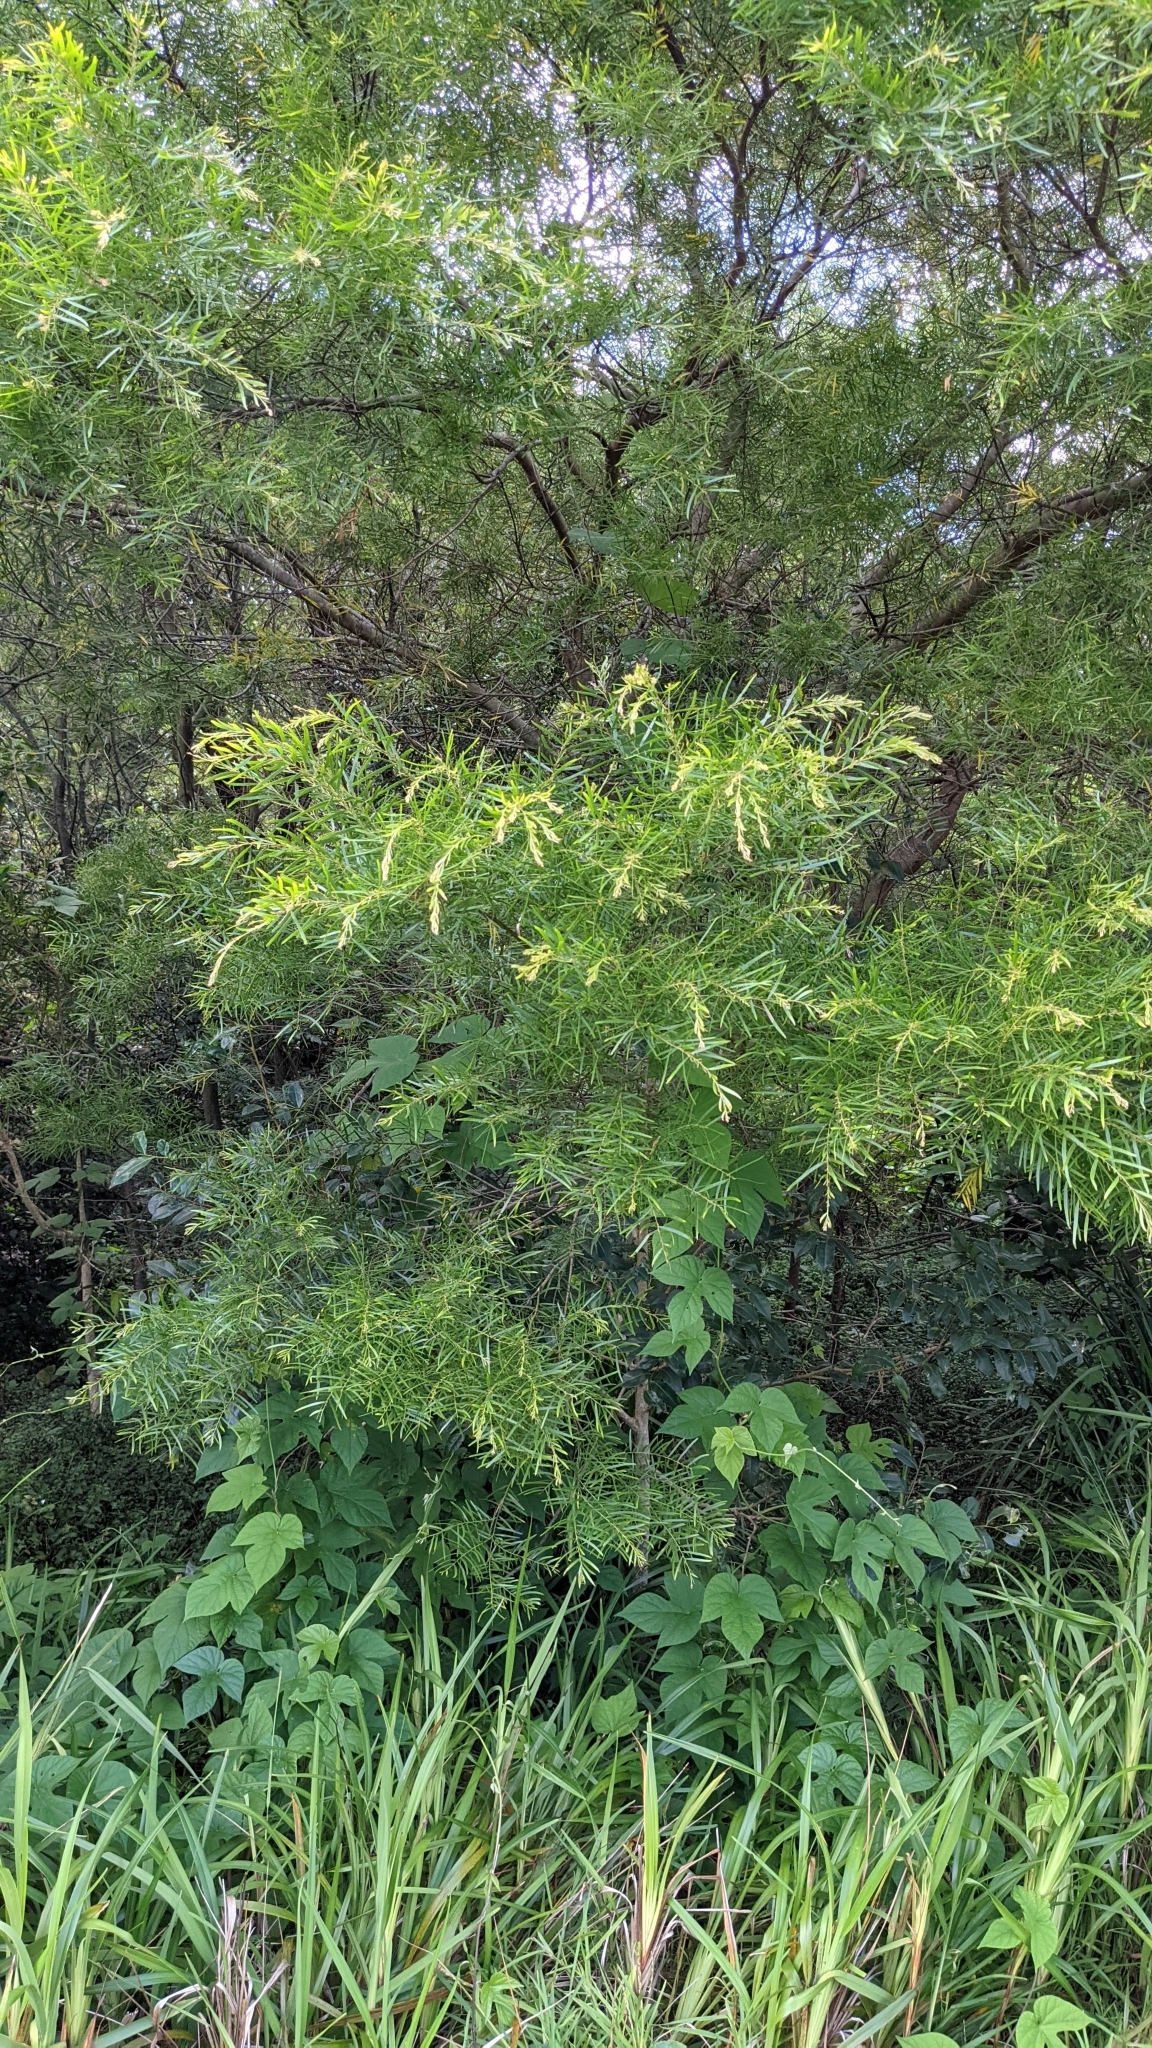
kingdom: Plantae
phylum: Tracheophyta
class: Magnoliopsida
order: Fabales
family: Fabaceae
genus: Acacia
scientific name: Acacia fimbriata
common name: Brisbane golden wattle
